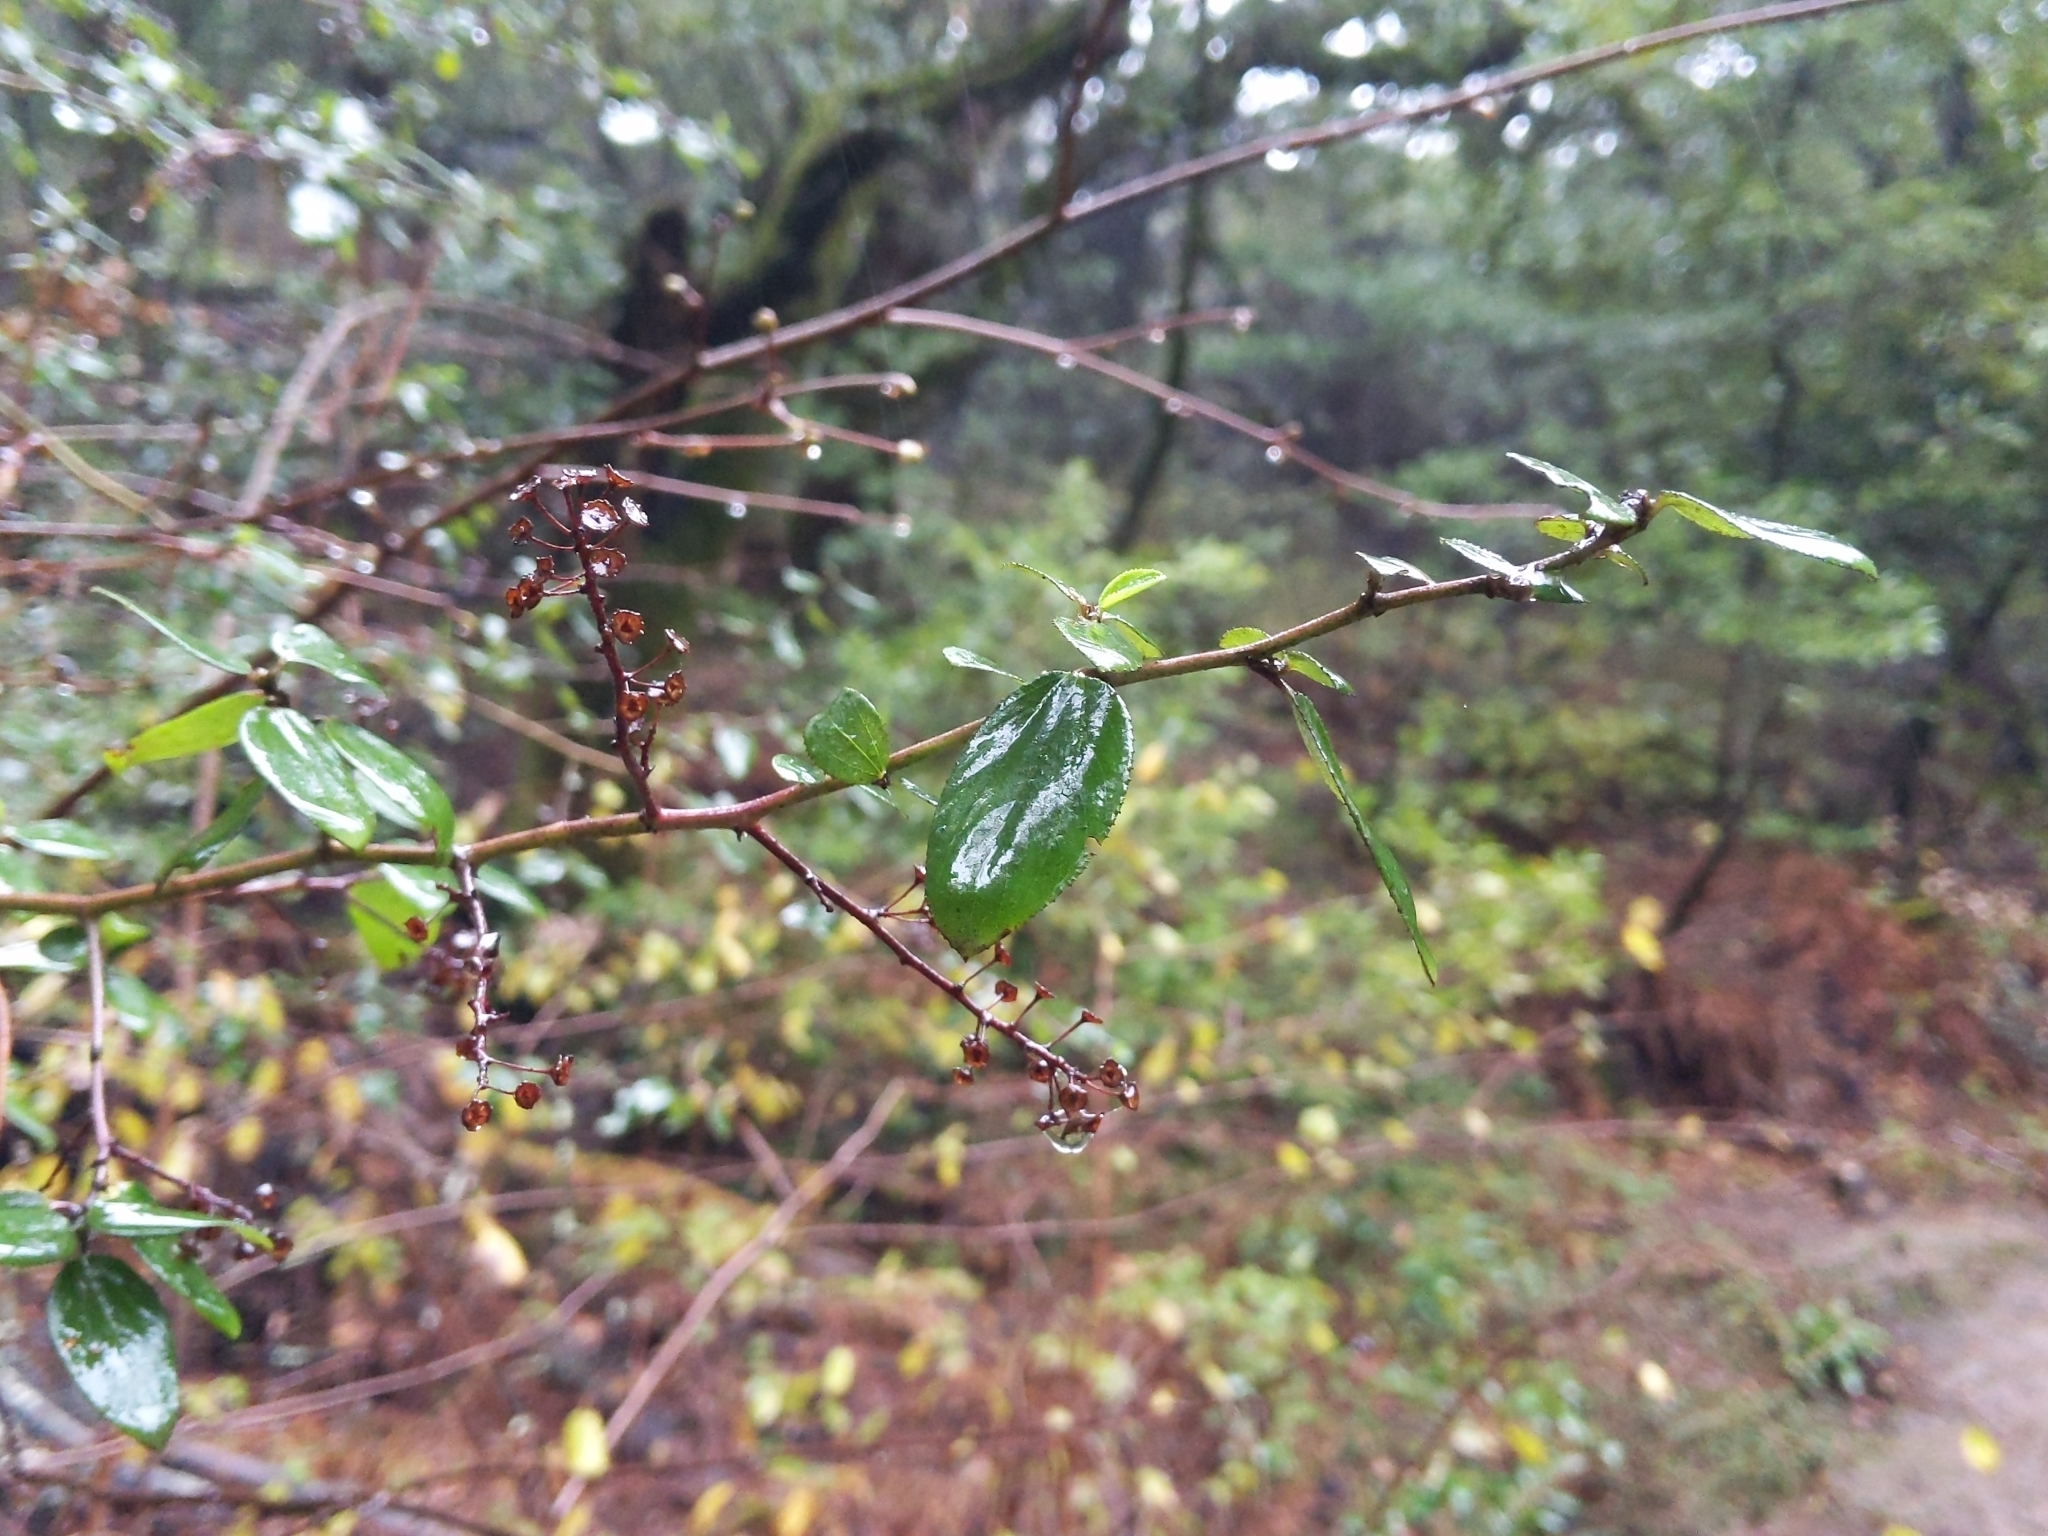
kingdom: Plantae
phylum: Tracheophyta
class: Magnoliopsida
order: Rosales
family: Rhamnaceae
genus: Ceanothus
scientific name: Ceanothus oliganthus
